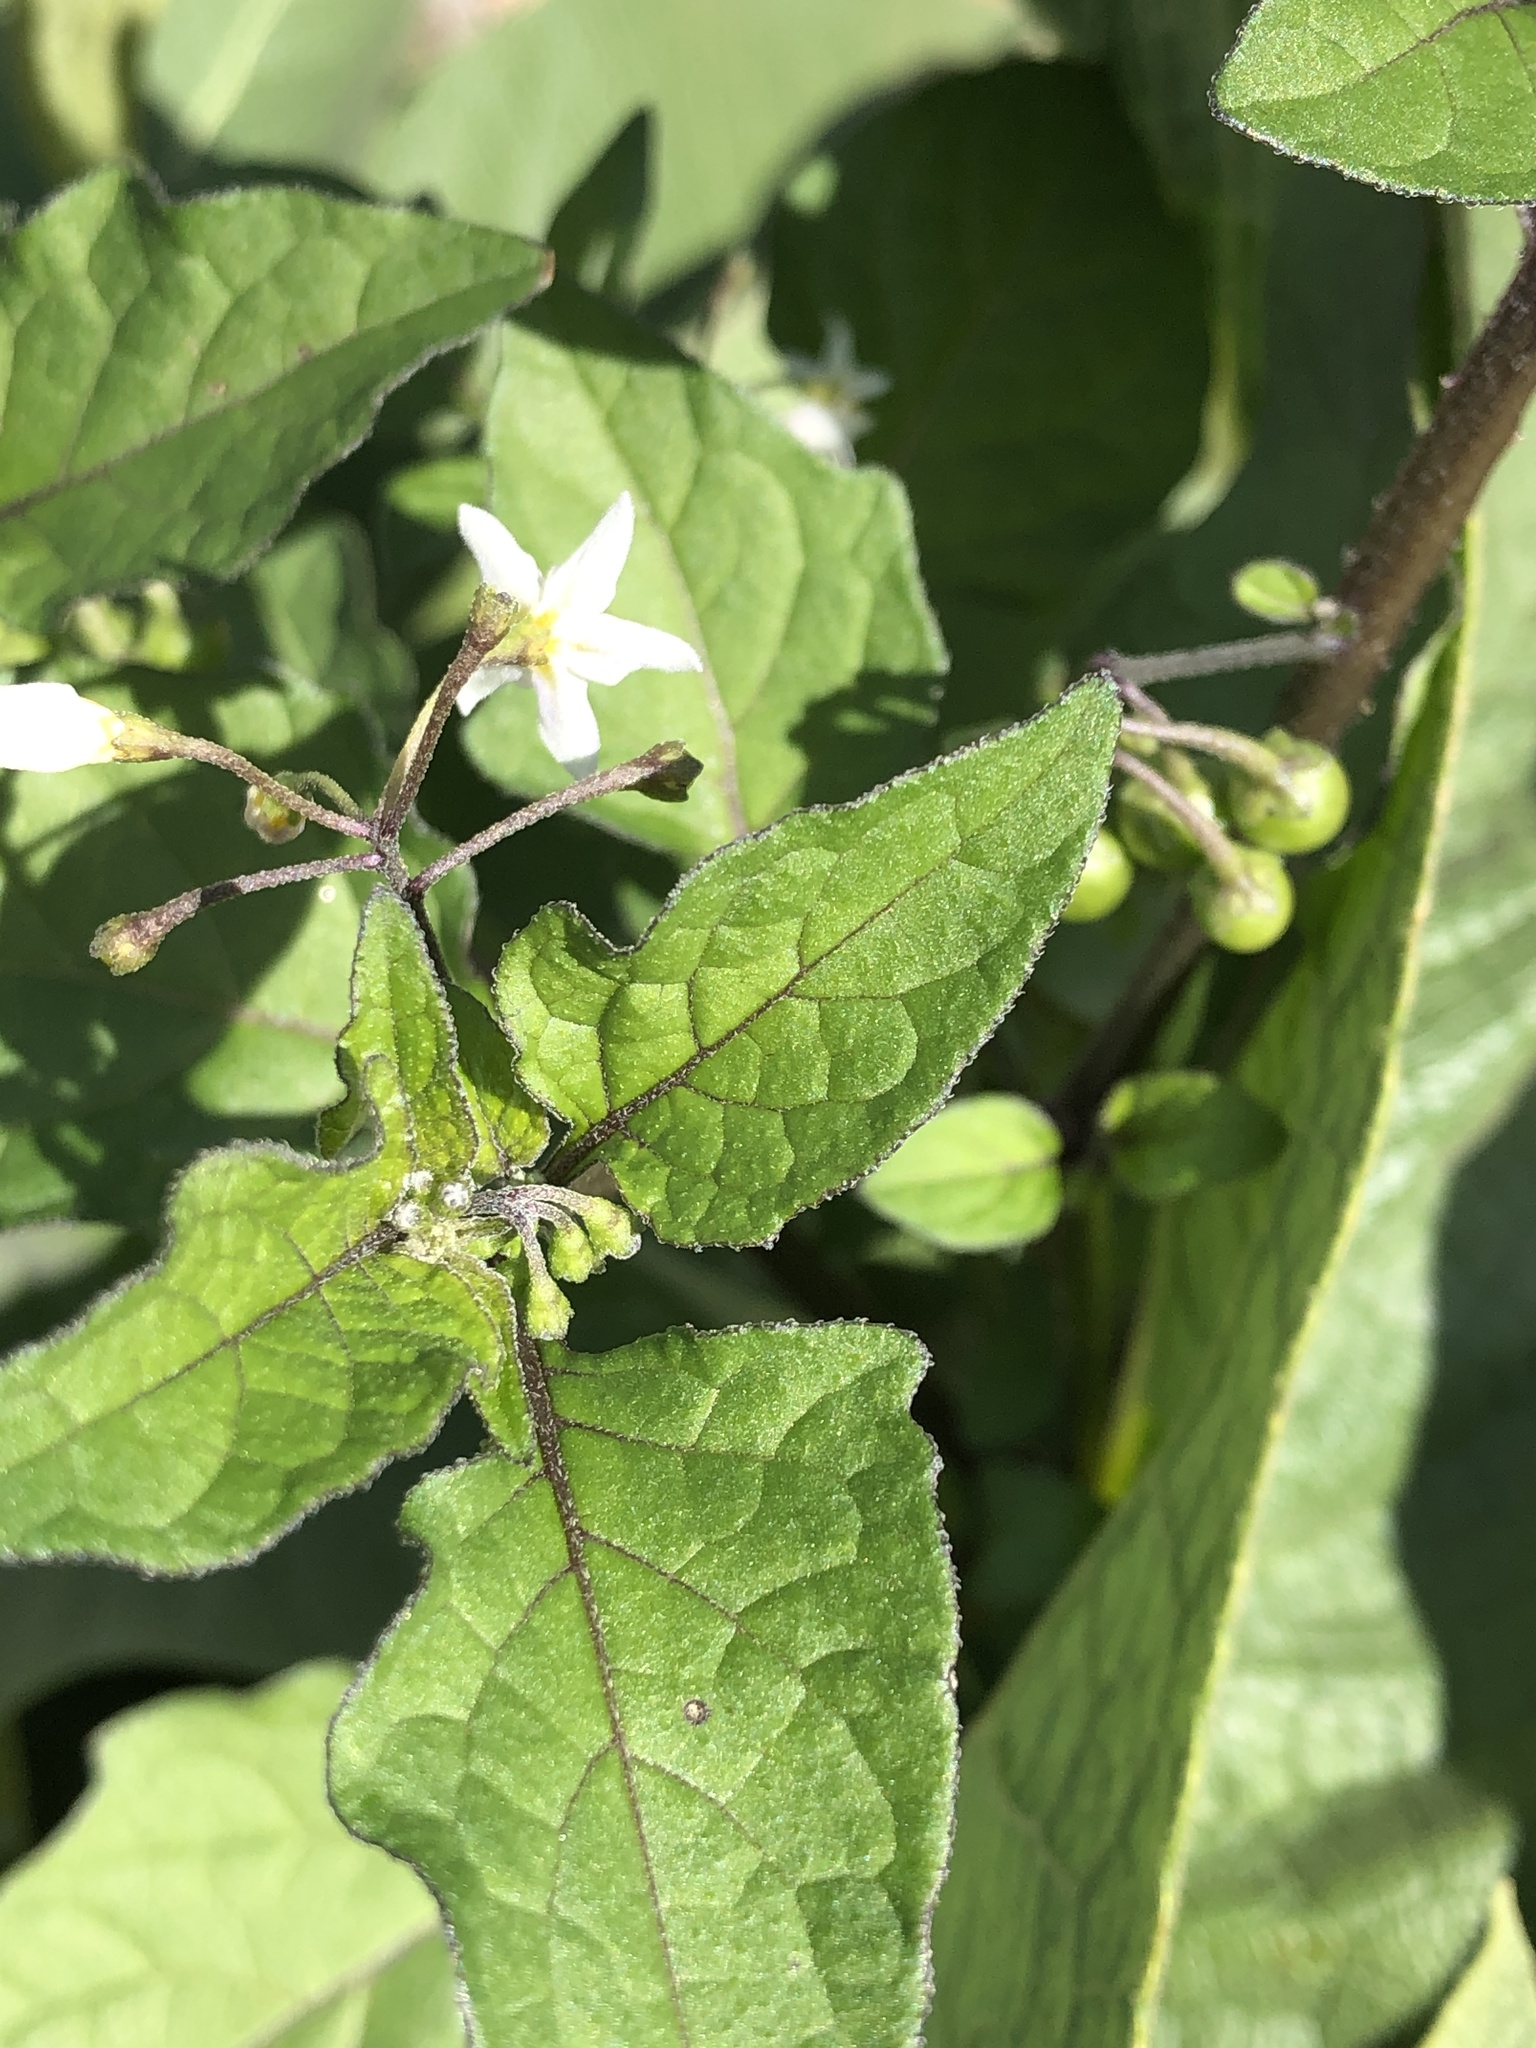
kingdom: Plantae
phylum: Tracheophyta
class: Magnoliopsida
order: Solanales
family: Solanaceae
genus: Solanum
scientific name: Solanum nigrum
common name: Black nightshade
